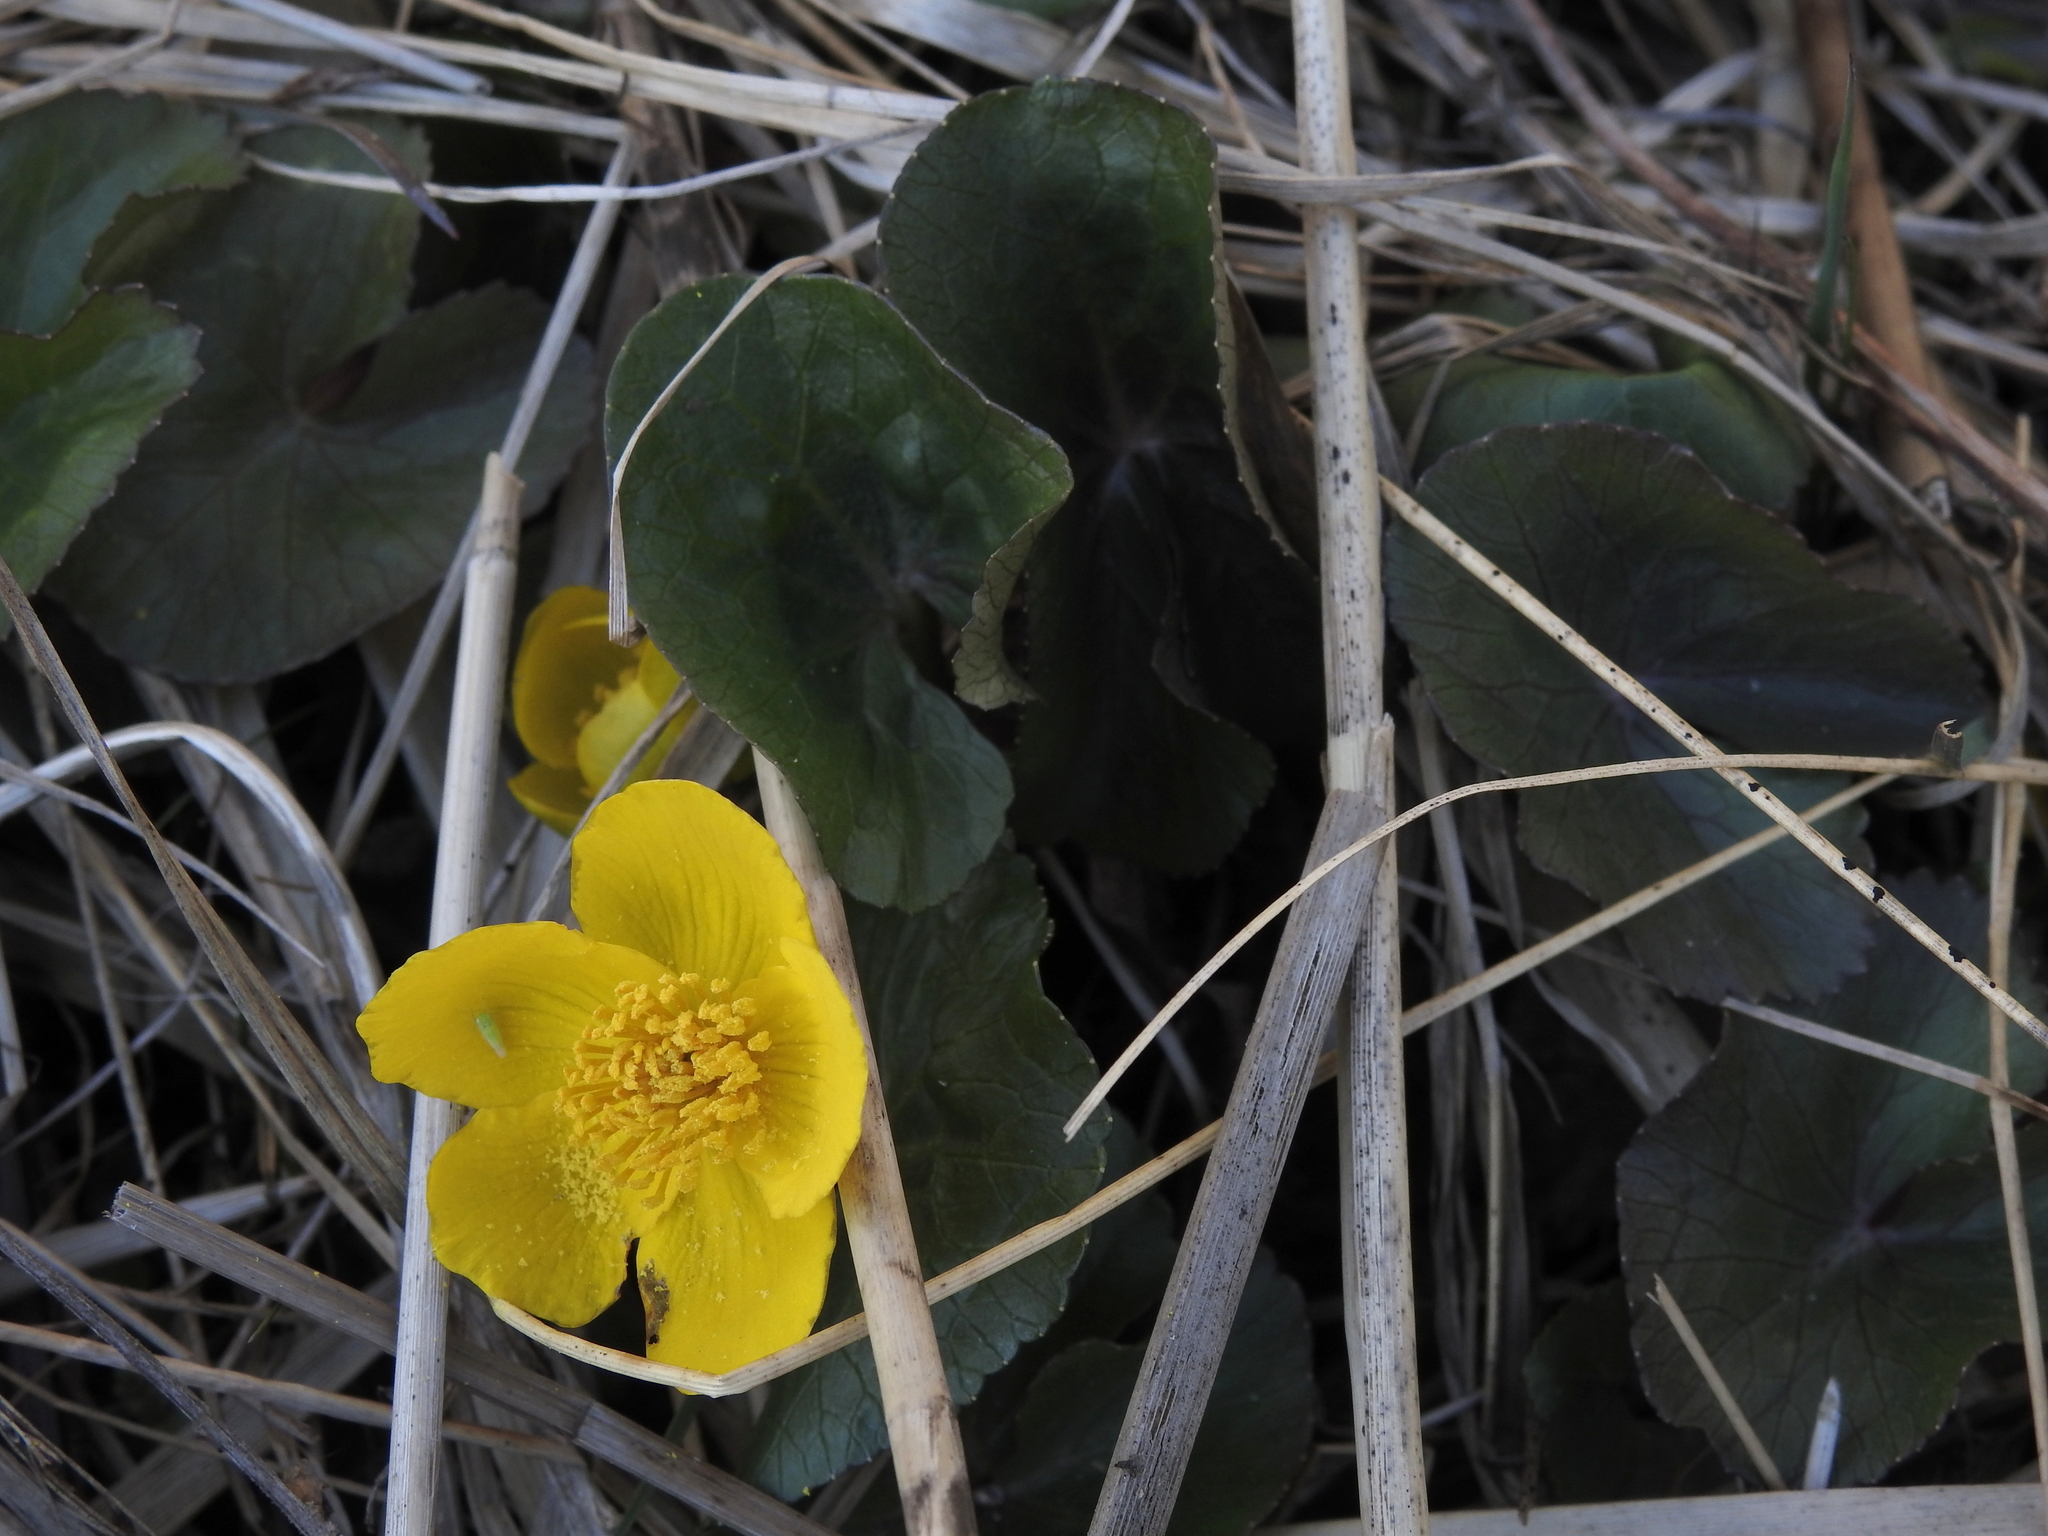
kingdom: Plantae
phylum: Tracheophyta
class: Magnoliopsida
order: Ranunculales
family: Ranunculaceae
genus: Caltha
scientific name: Caltha palustris
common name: Marsh marigold
